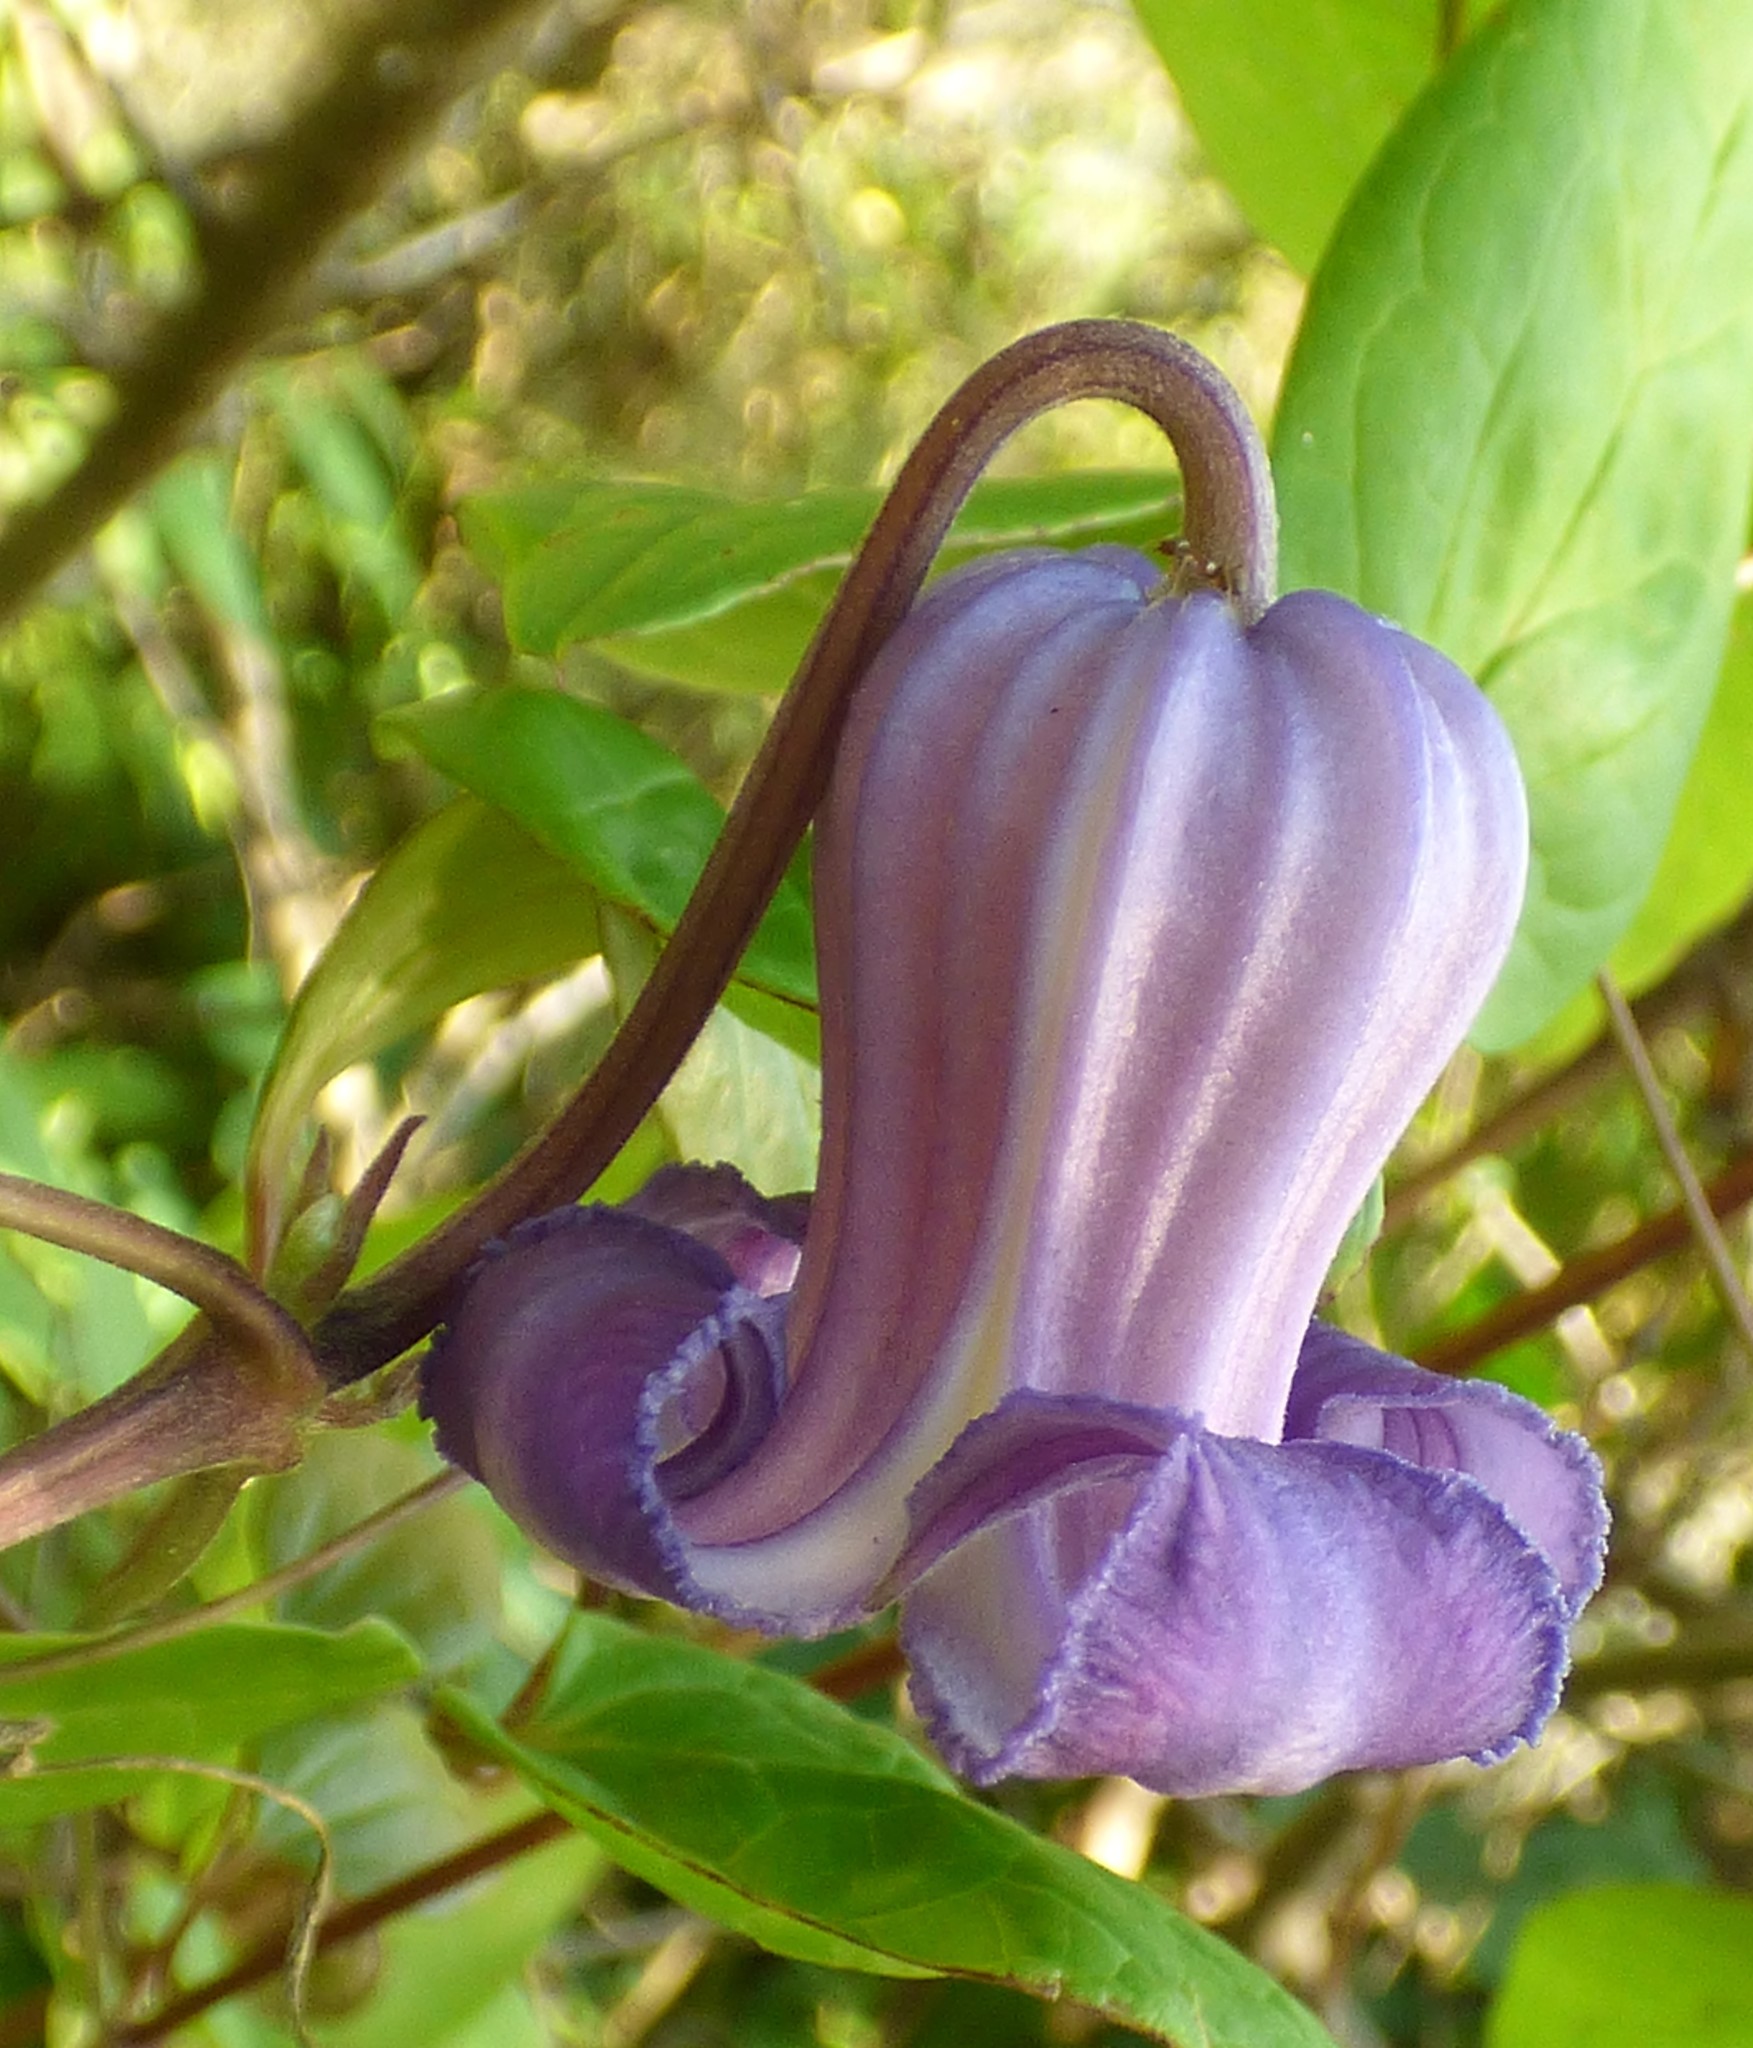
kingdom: Plantae
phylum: Tracheophyta
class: Magnoliopsida
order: Ranunculales
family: Ranunculaceae
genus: Clematis
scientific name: Clematis crispa
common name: Curly clematis
